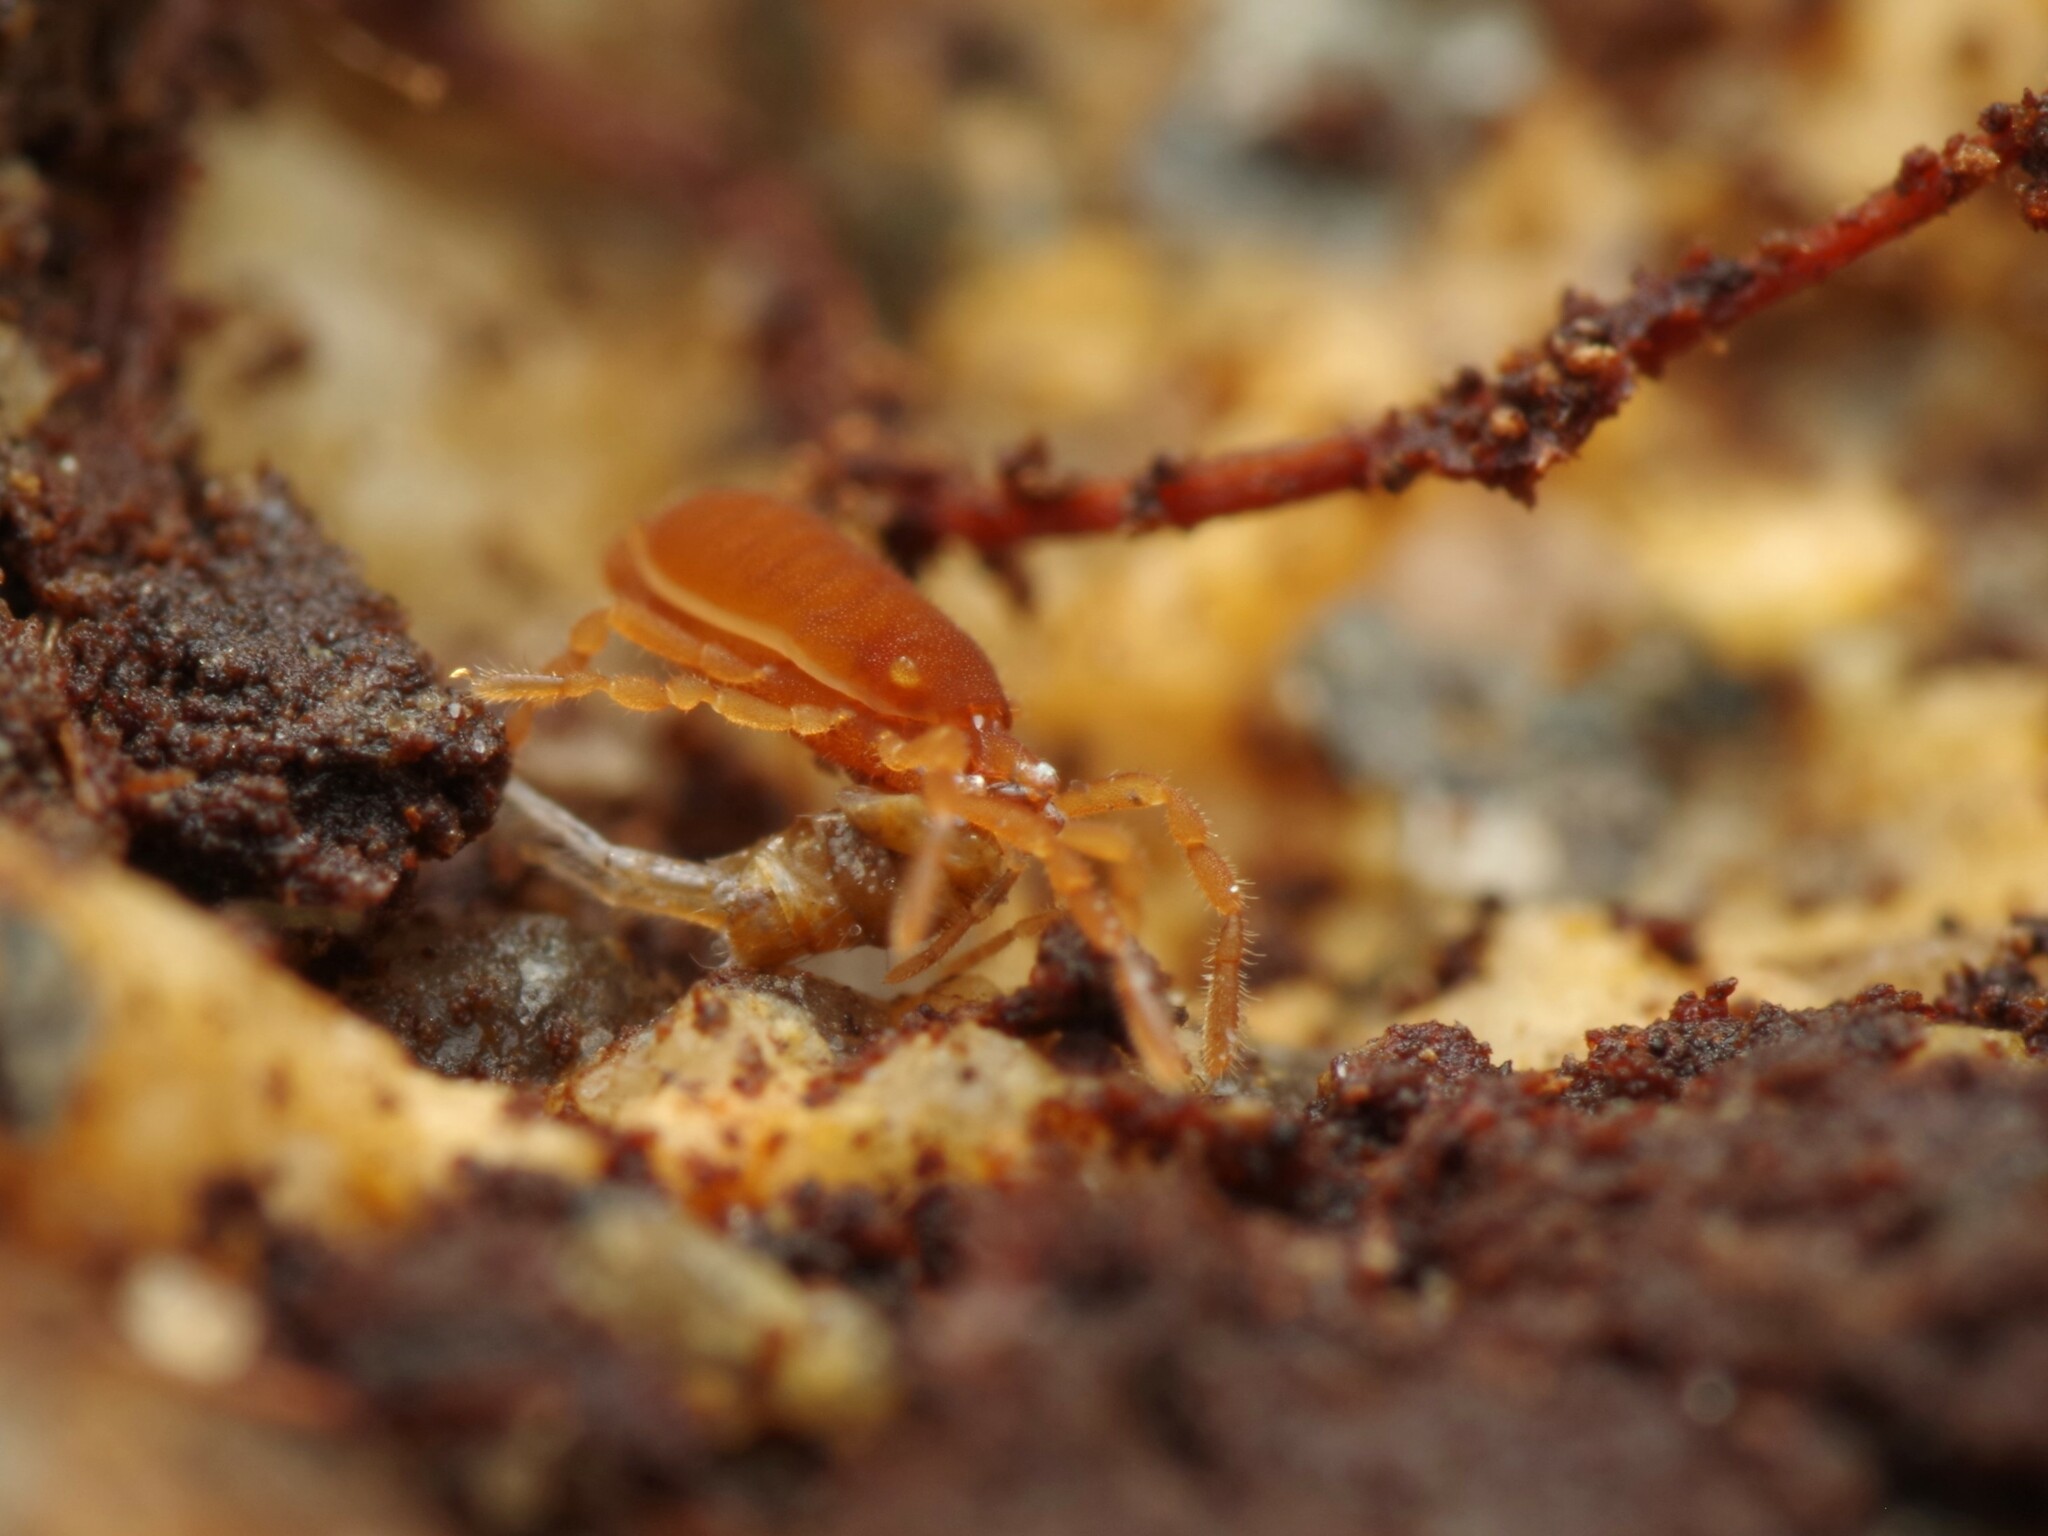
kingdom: Animalia
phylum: Arthropoda
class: Arachnida
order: Opiliones
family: Sironidae
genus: Siro
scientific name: Siro rubens
